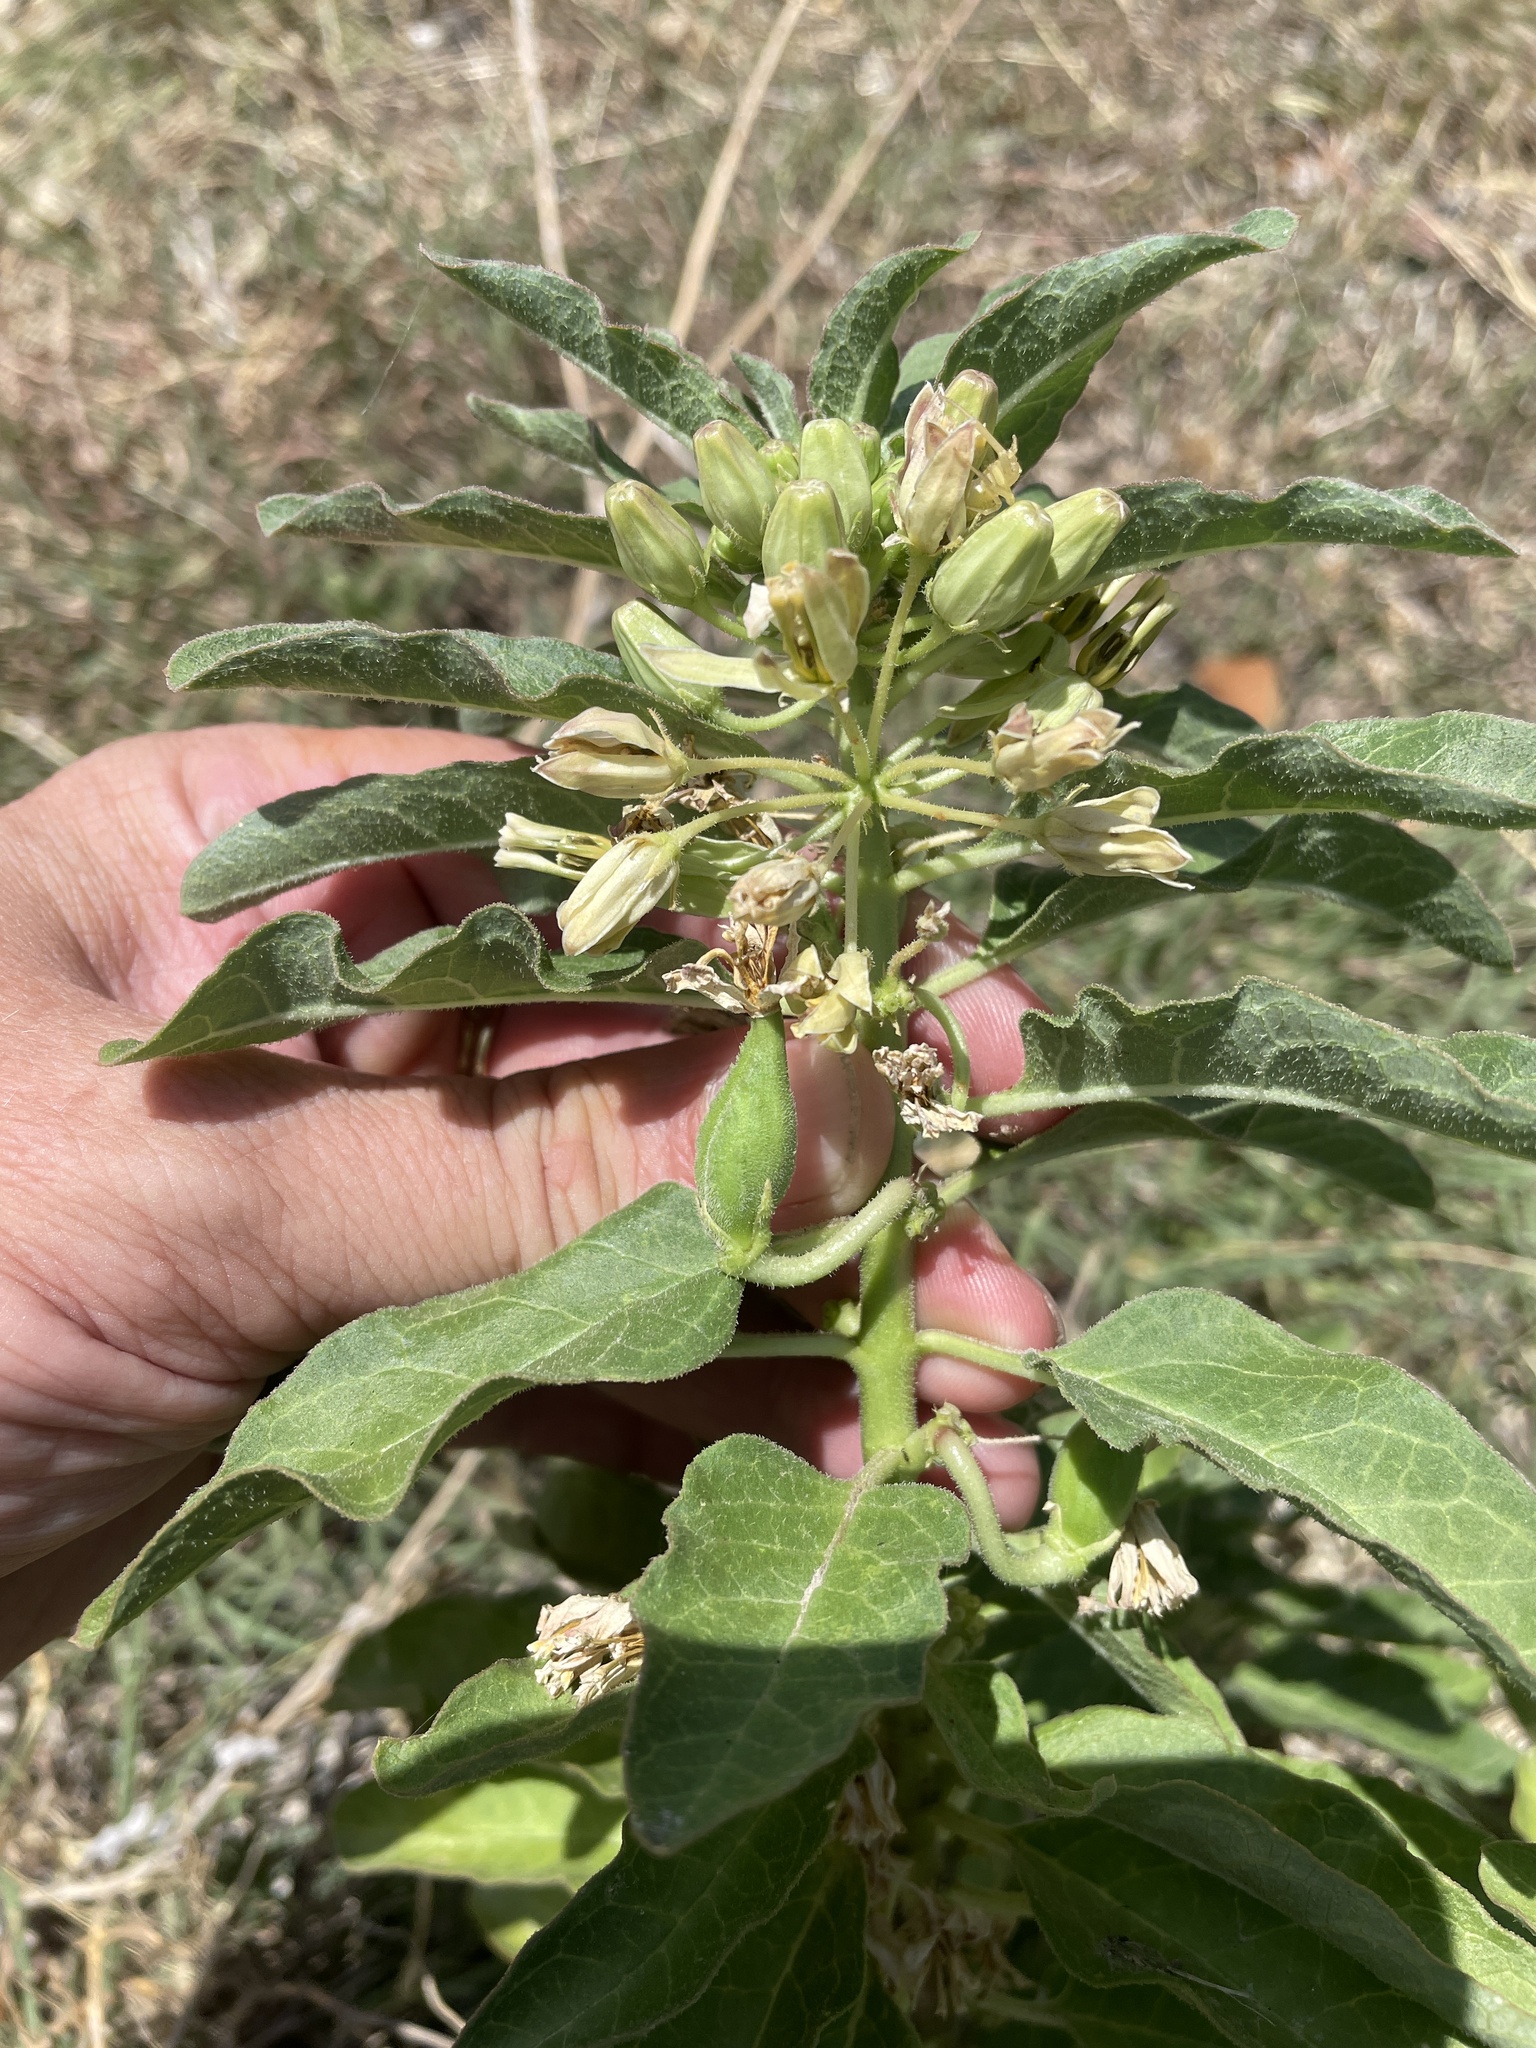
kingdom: Plantae
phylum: Tracheophyta
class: Magnoliopsida
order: Gentianales
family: Apocynaceae
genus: Asclepias
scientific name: Asclepias oenotheroides
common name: Zizotes milkweed
